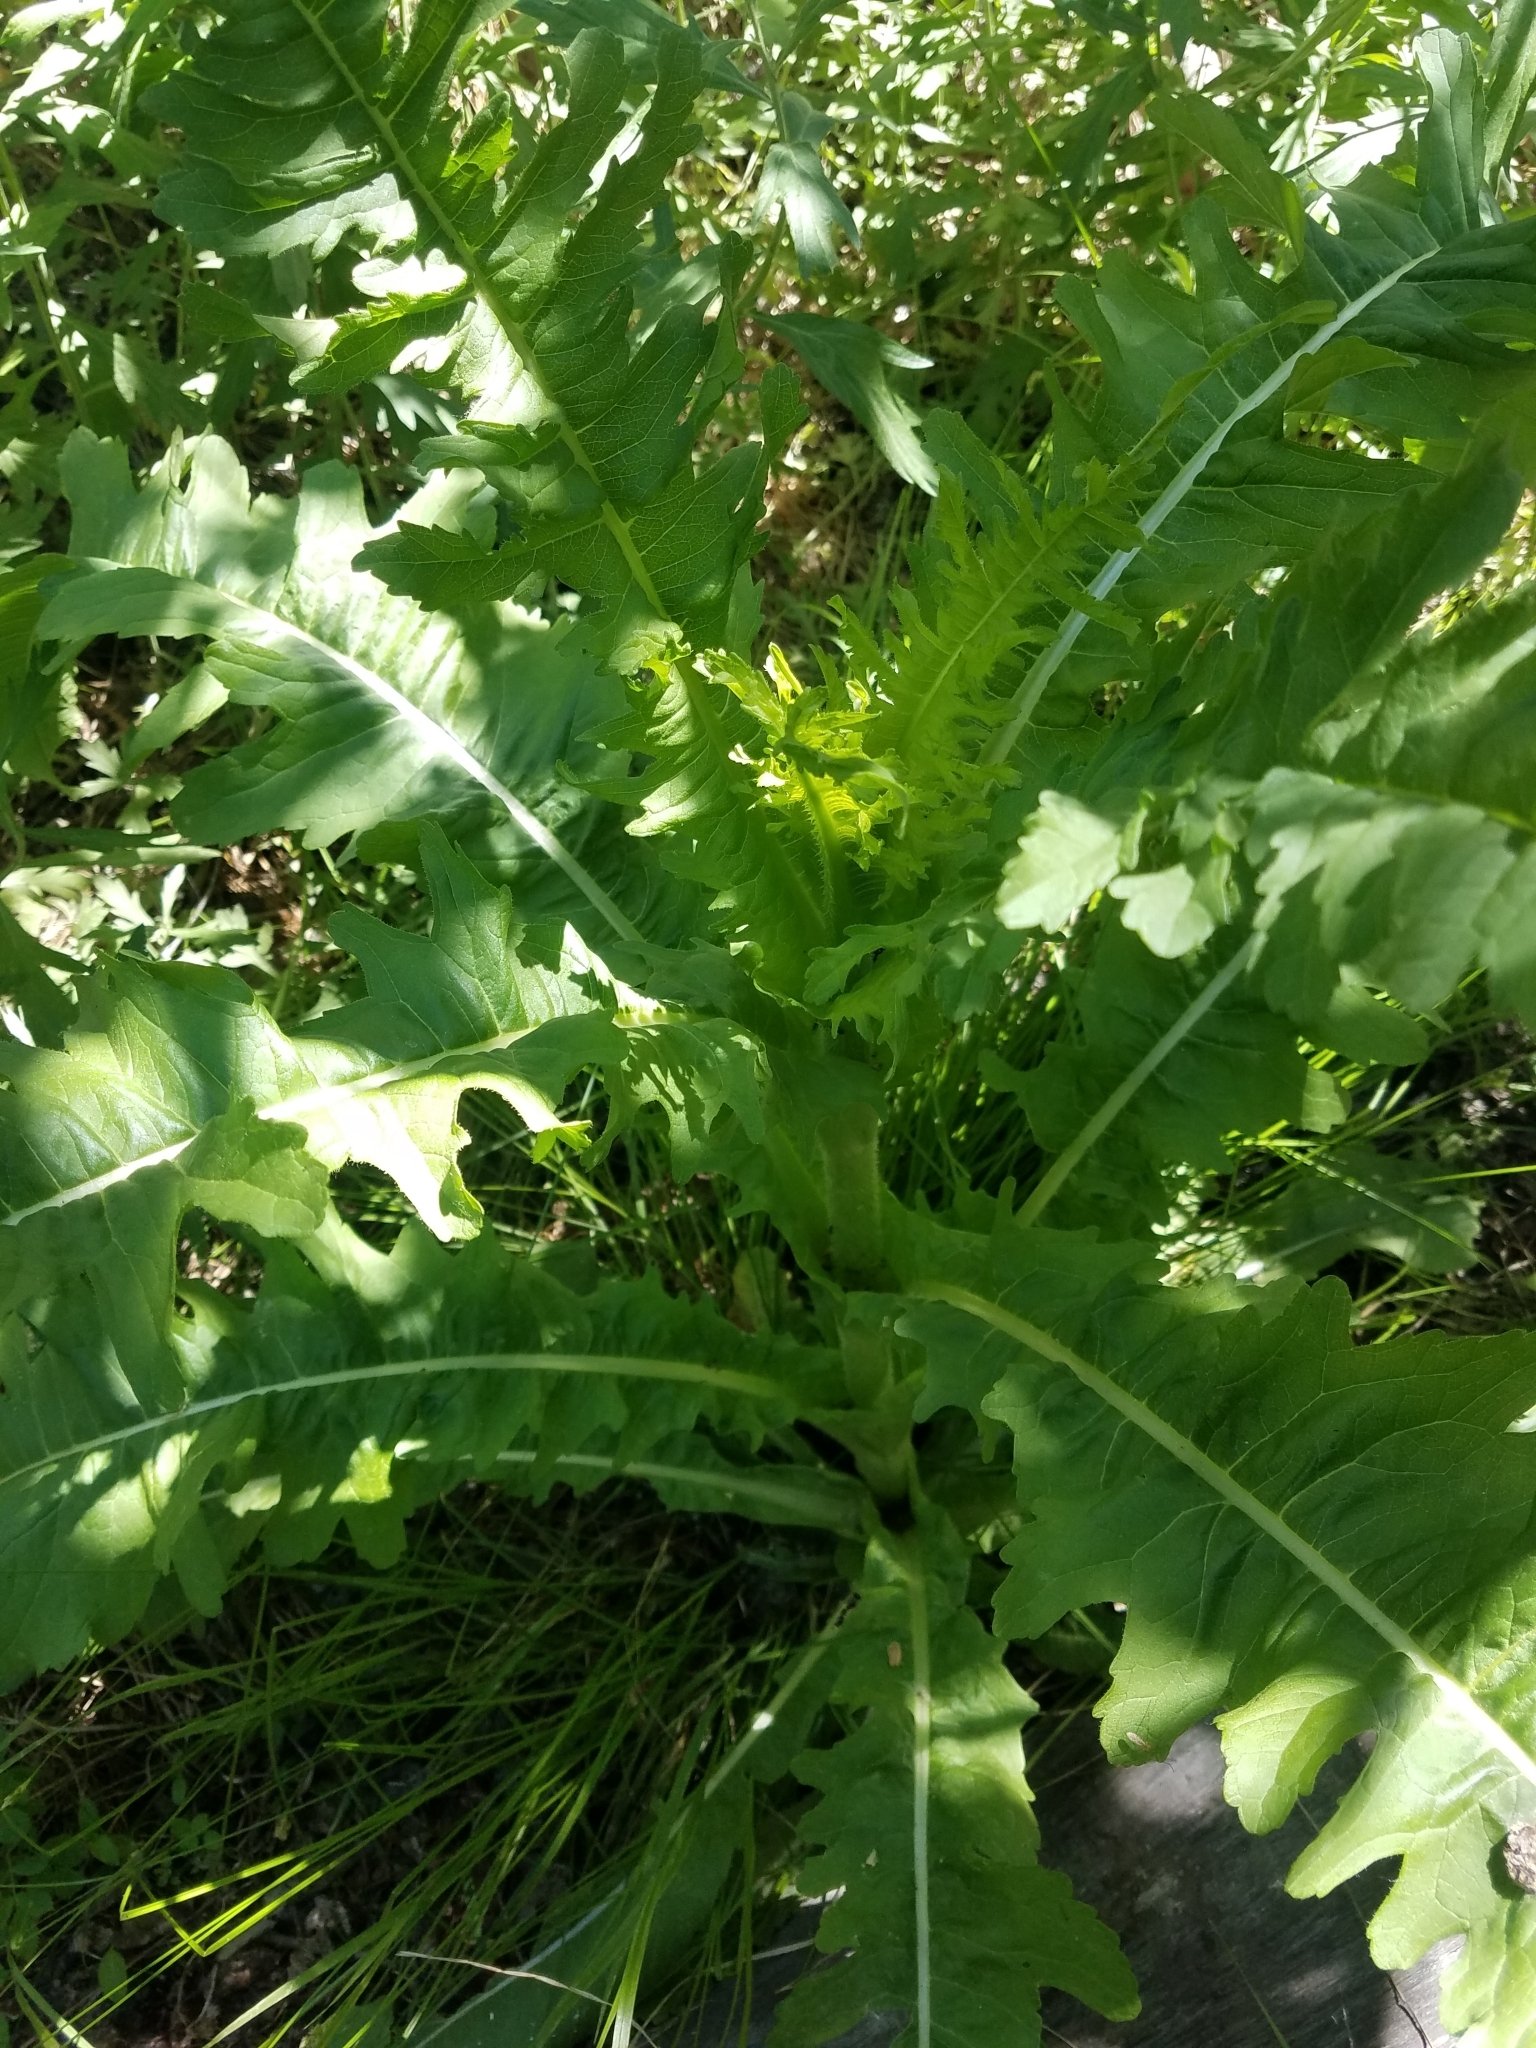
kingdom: Plantae
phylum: Tracheophyta
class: Magnoliopsida
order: Dipsacales
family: Caprifoliaceae
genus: Dipsacus
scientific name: Dipsacus laciniatus
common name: Cut-leaved teasel
